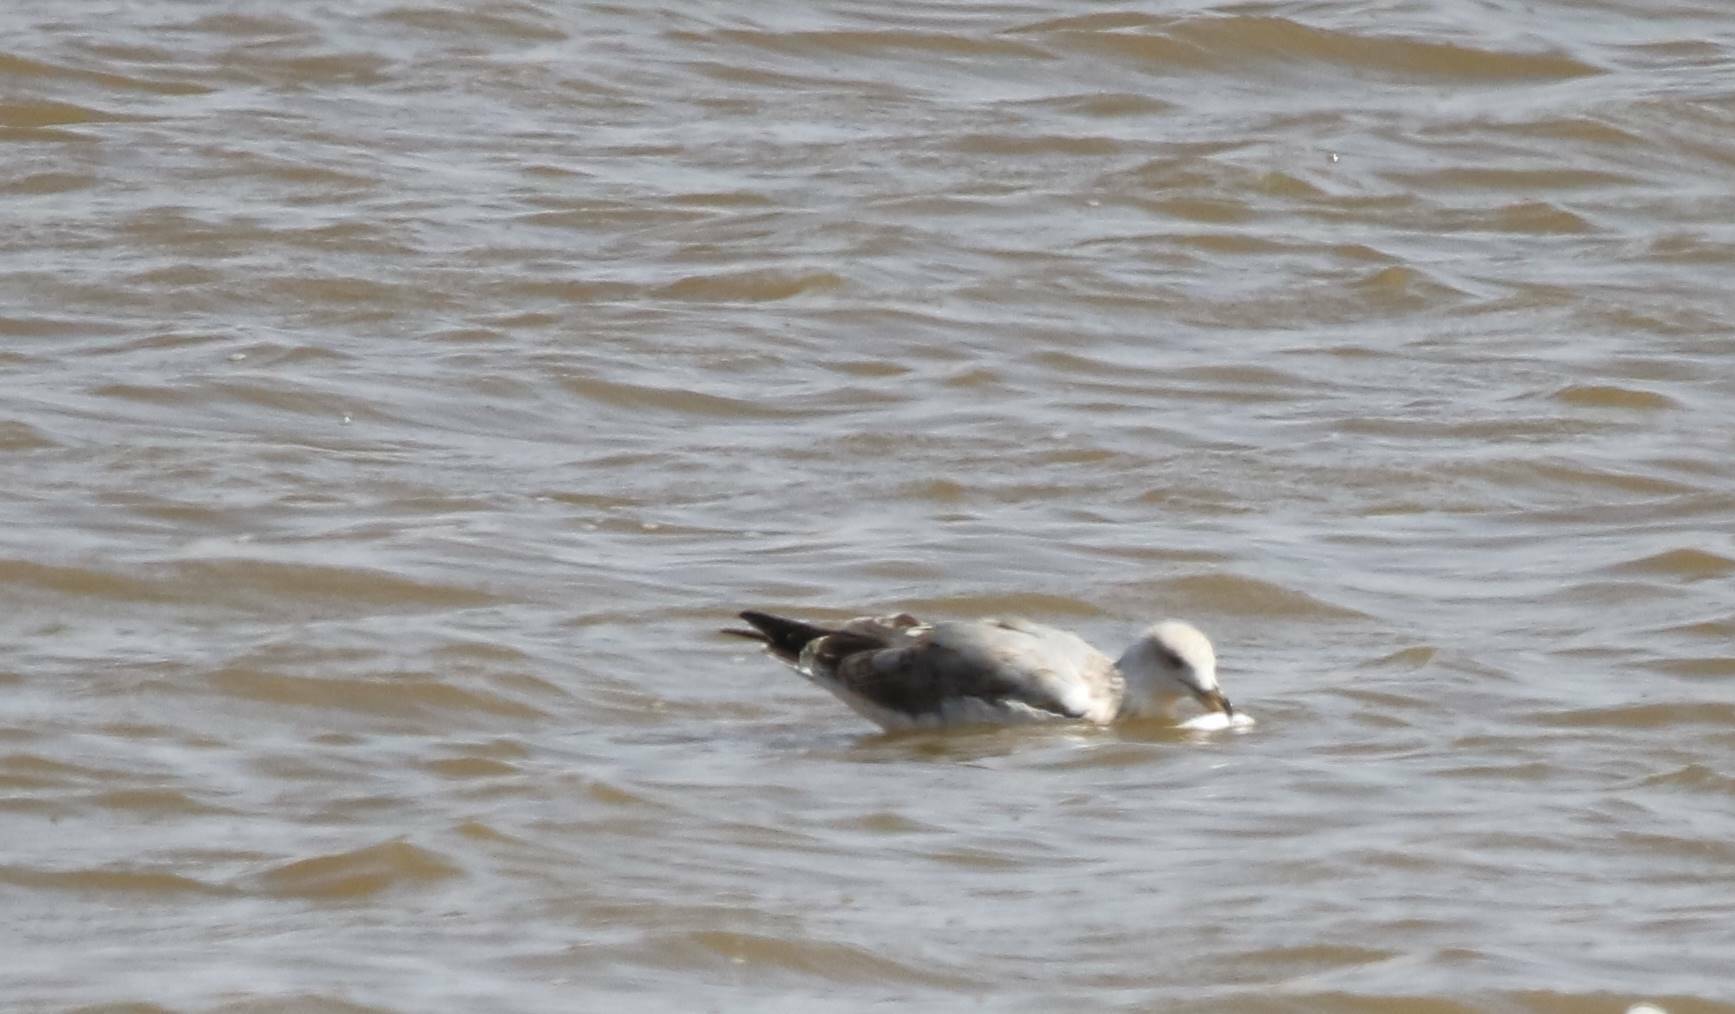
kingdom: Animalia
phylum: Chordata
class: Aves
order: Charadriiformes
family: Laridae
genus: Larus
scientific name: Larus michahellis
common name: Yellow-legged gull
